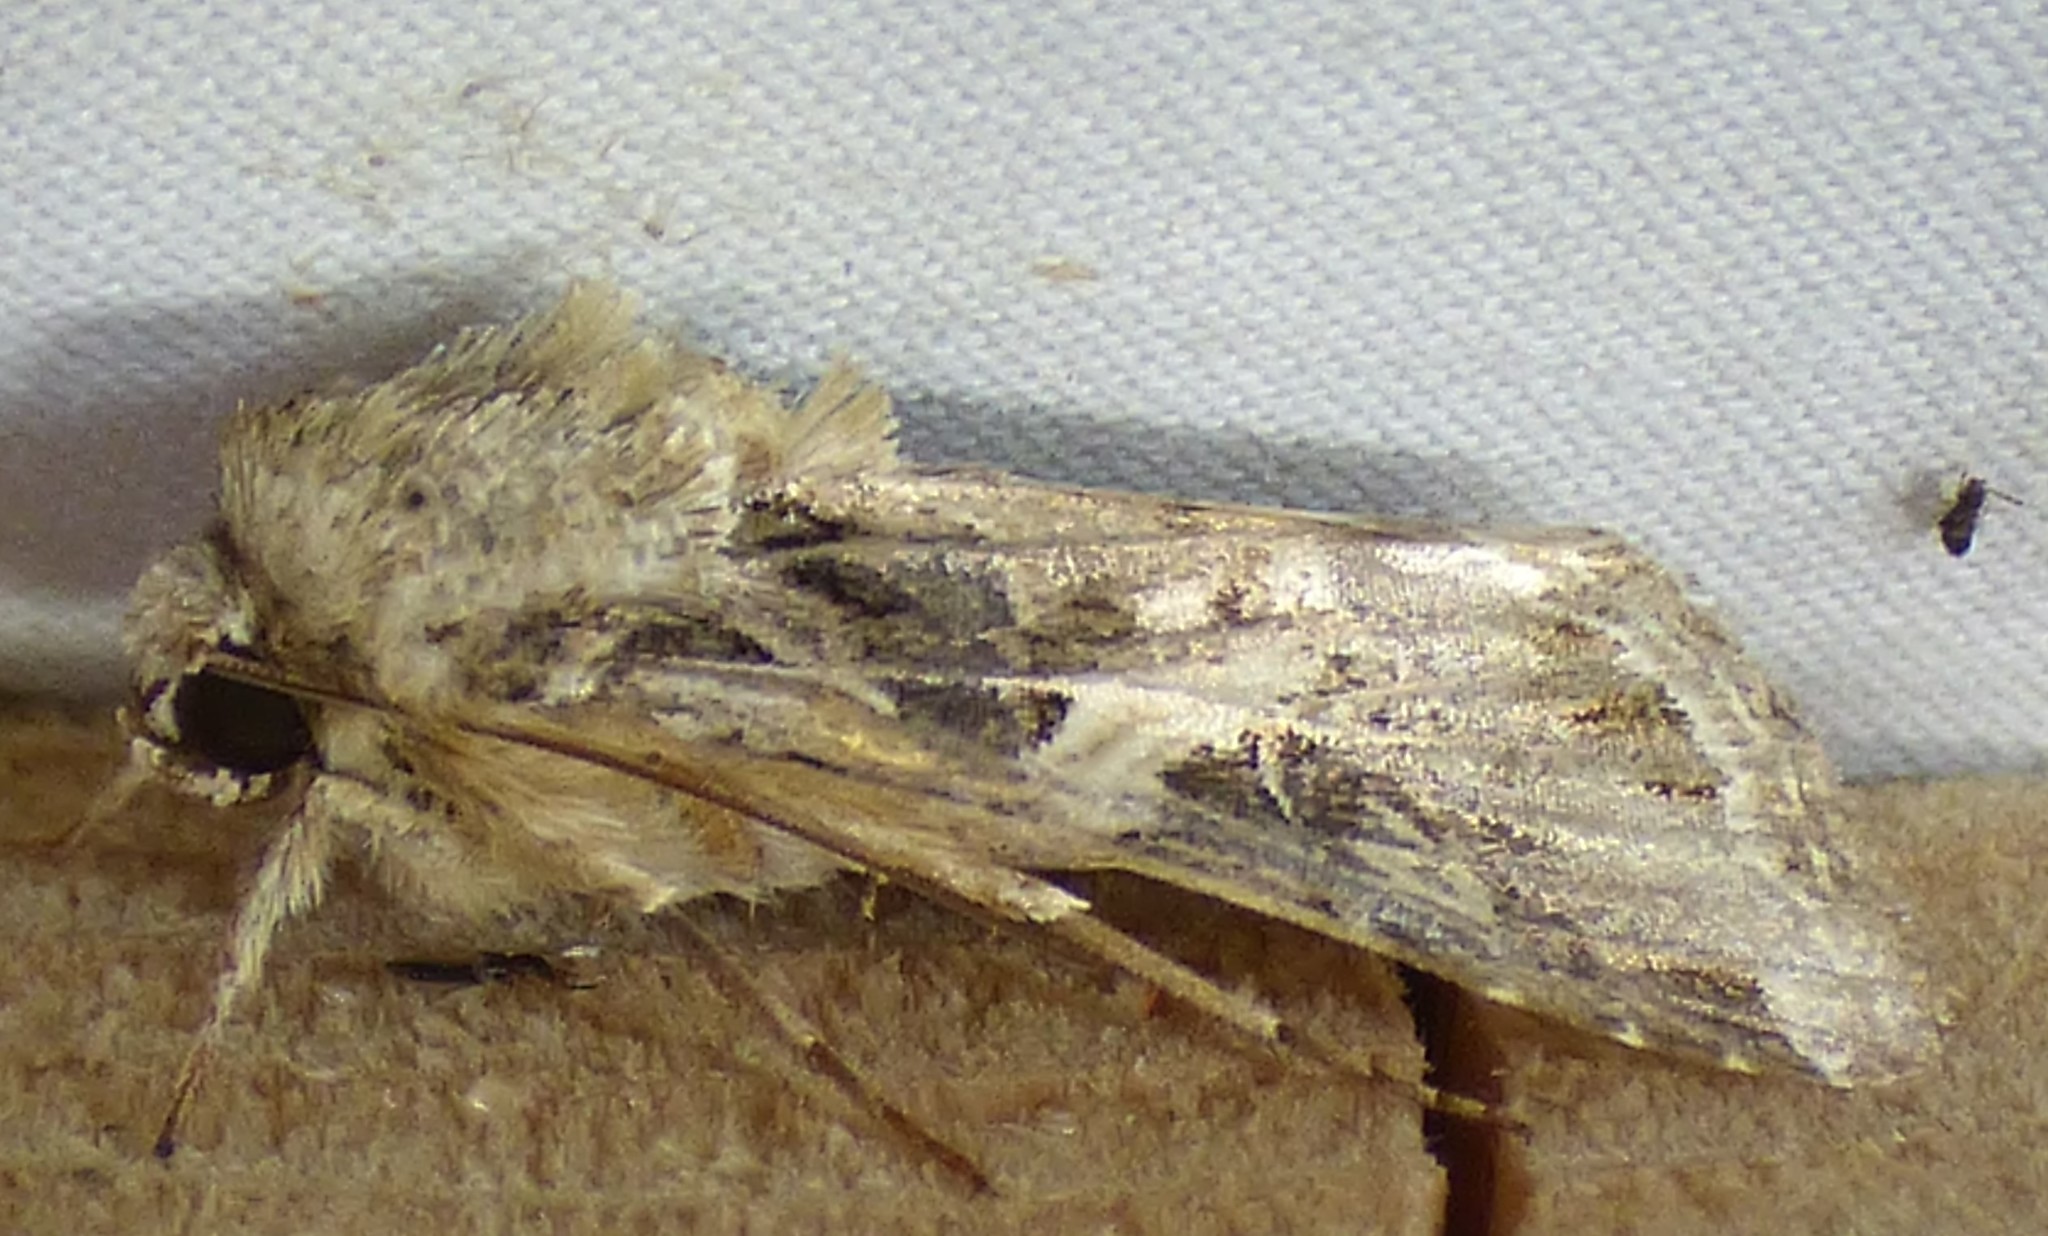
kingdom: Animalia
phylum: Arthropoda
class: Insecta
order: Lepidoptera
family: Noctuidae
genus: Spodoptera
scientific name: Spodoptera ornithogalli
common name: Yellow-striped armyworm
